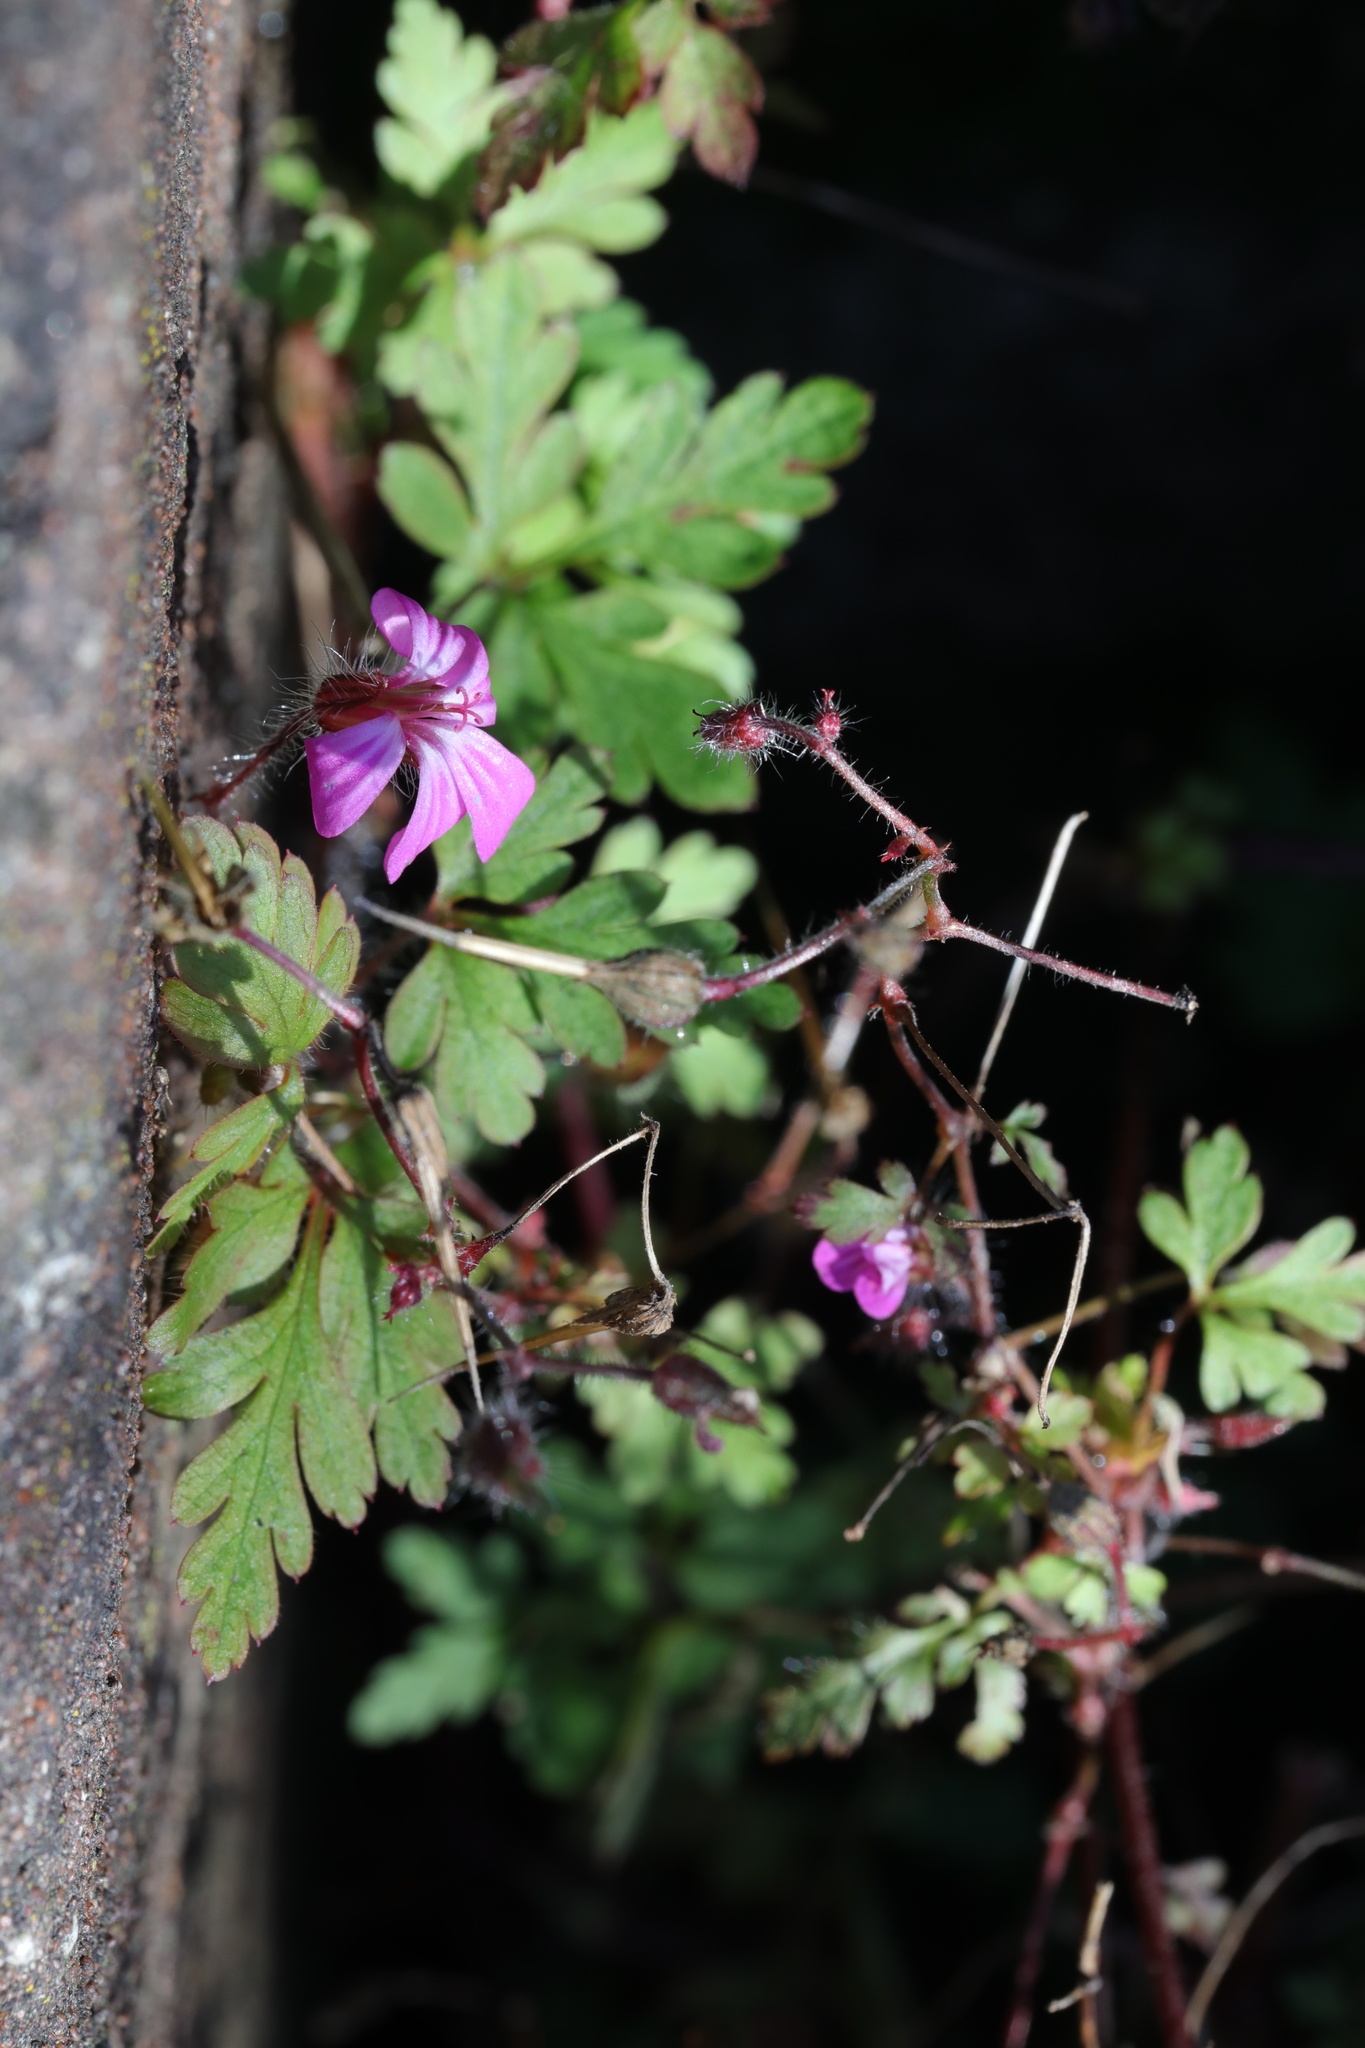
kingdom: Plantae
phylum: Tracheophyta
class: Magnoliopsida
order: Geraniales
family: Geraniaceae
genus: Geranium
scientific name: Geranium robertianum
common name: Herb-robert
